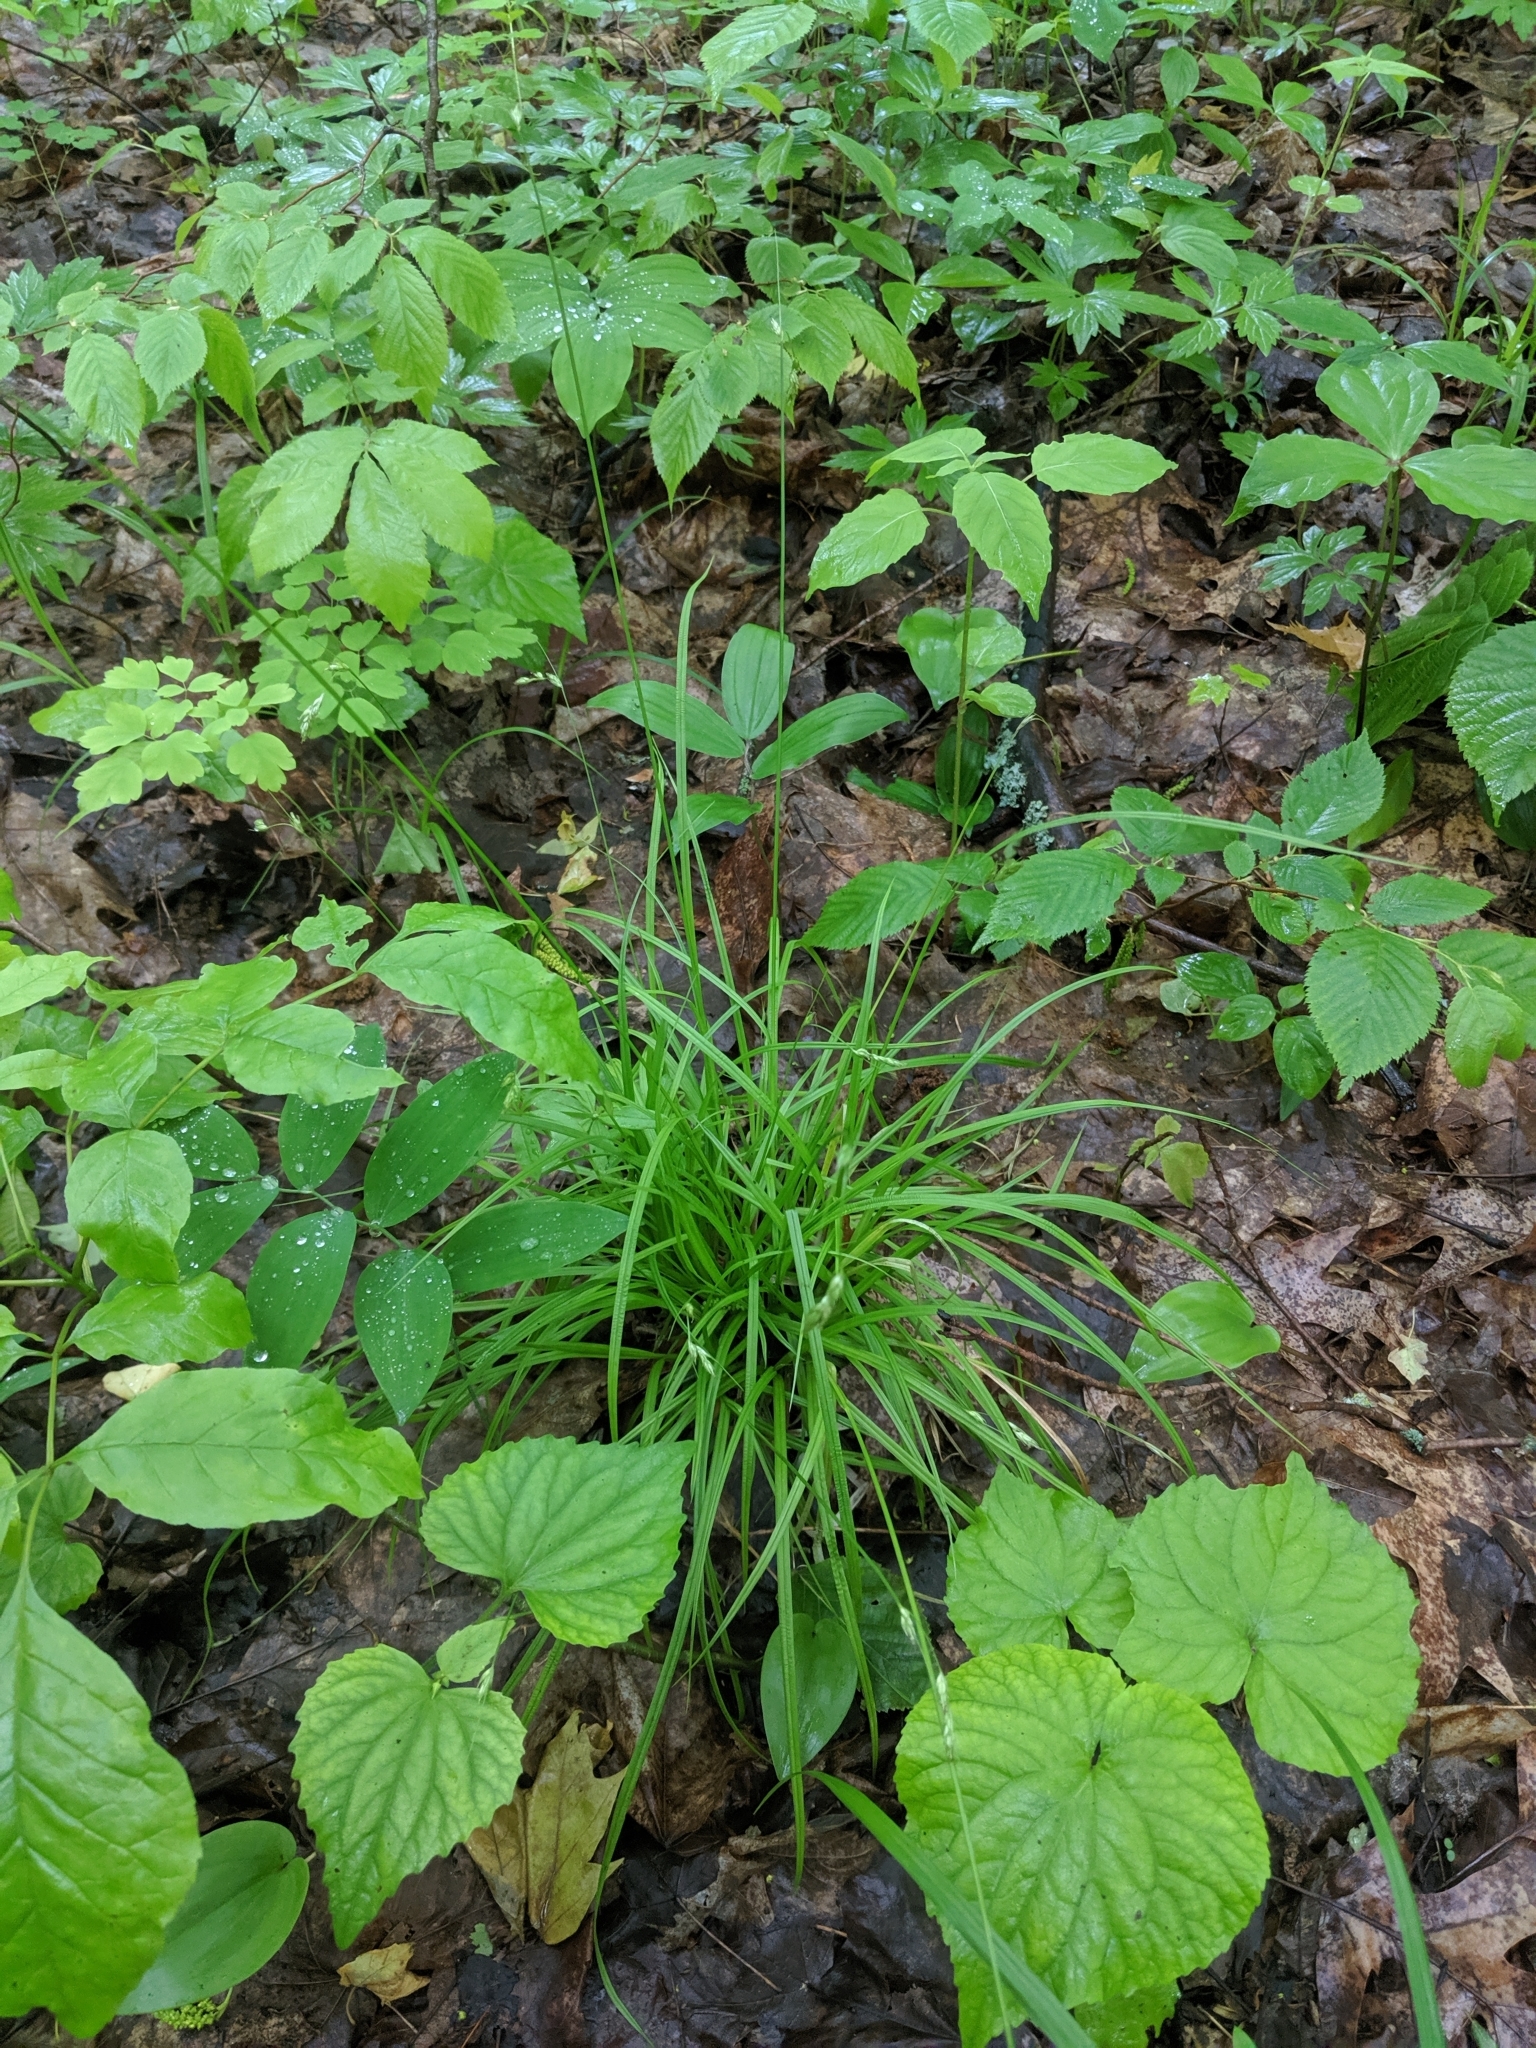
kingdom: Plantae
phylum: Tracheophyta
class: Liliopsida
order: Poales
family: Cyperaceae
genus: Carex
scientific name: Carex deweyana
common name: Dewey's sedge
